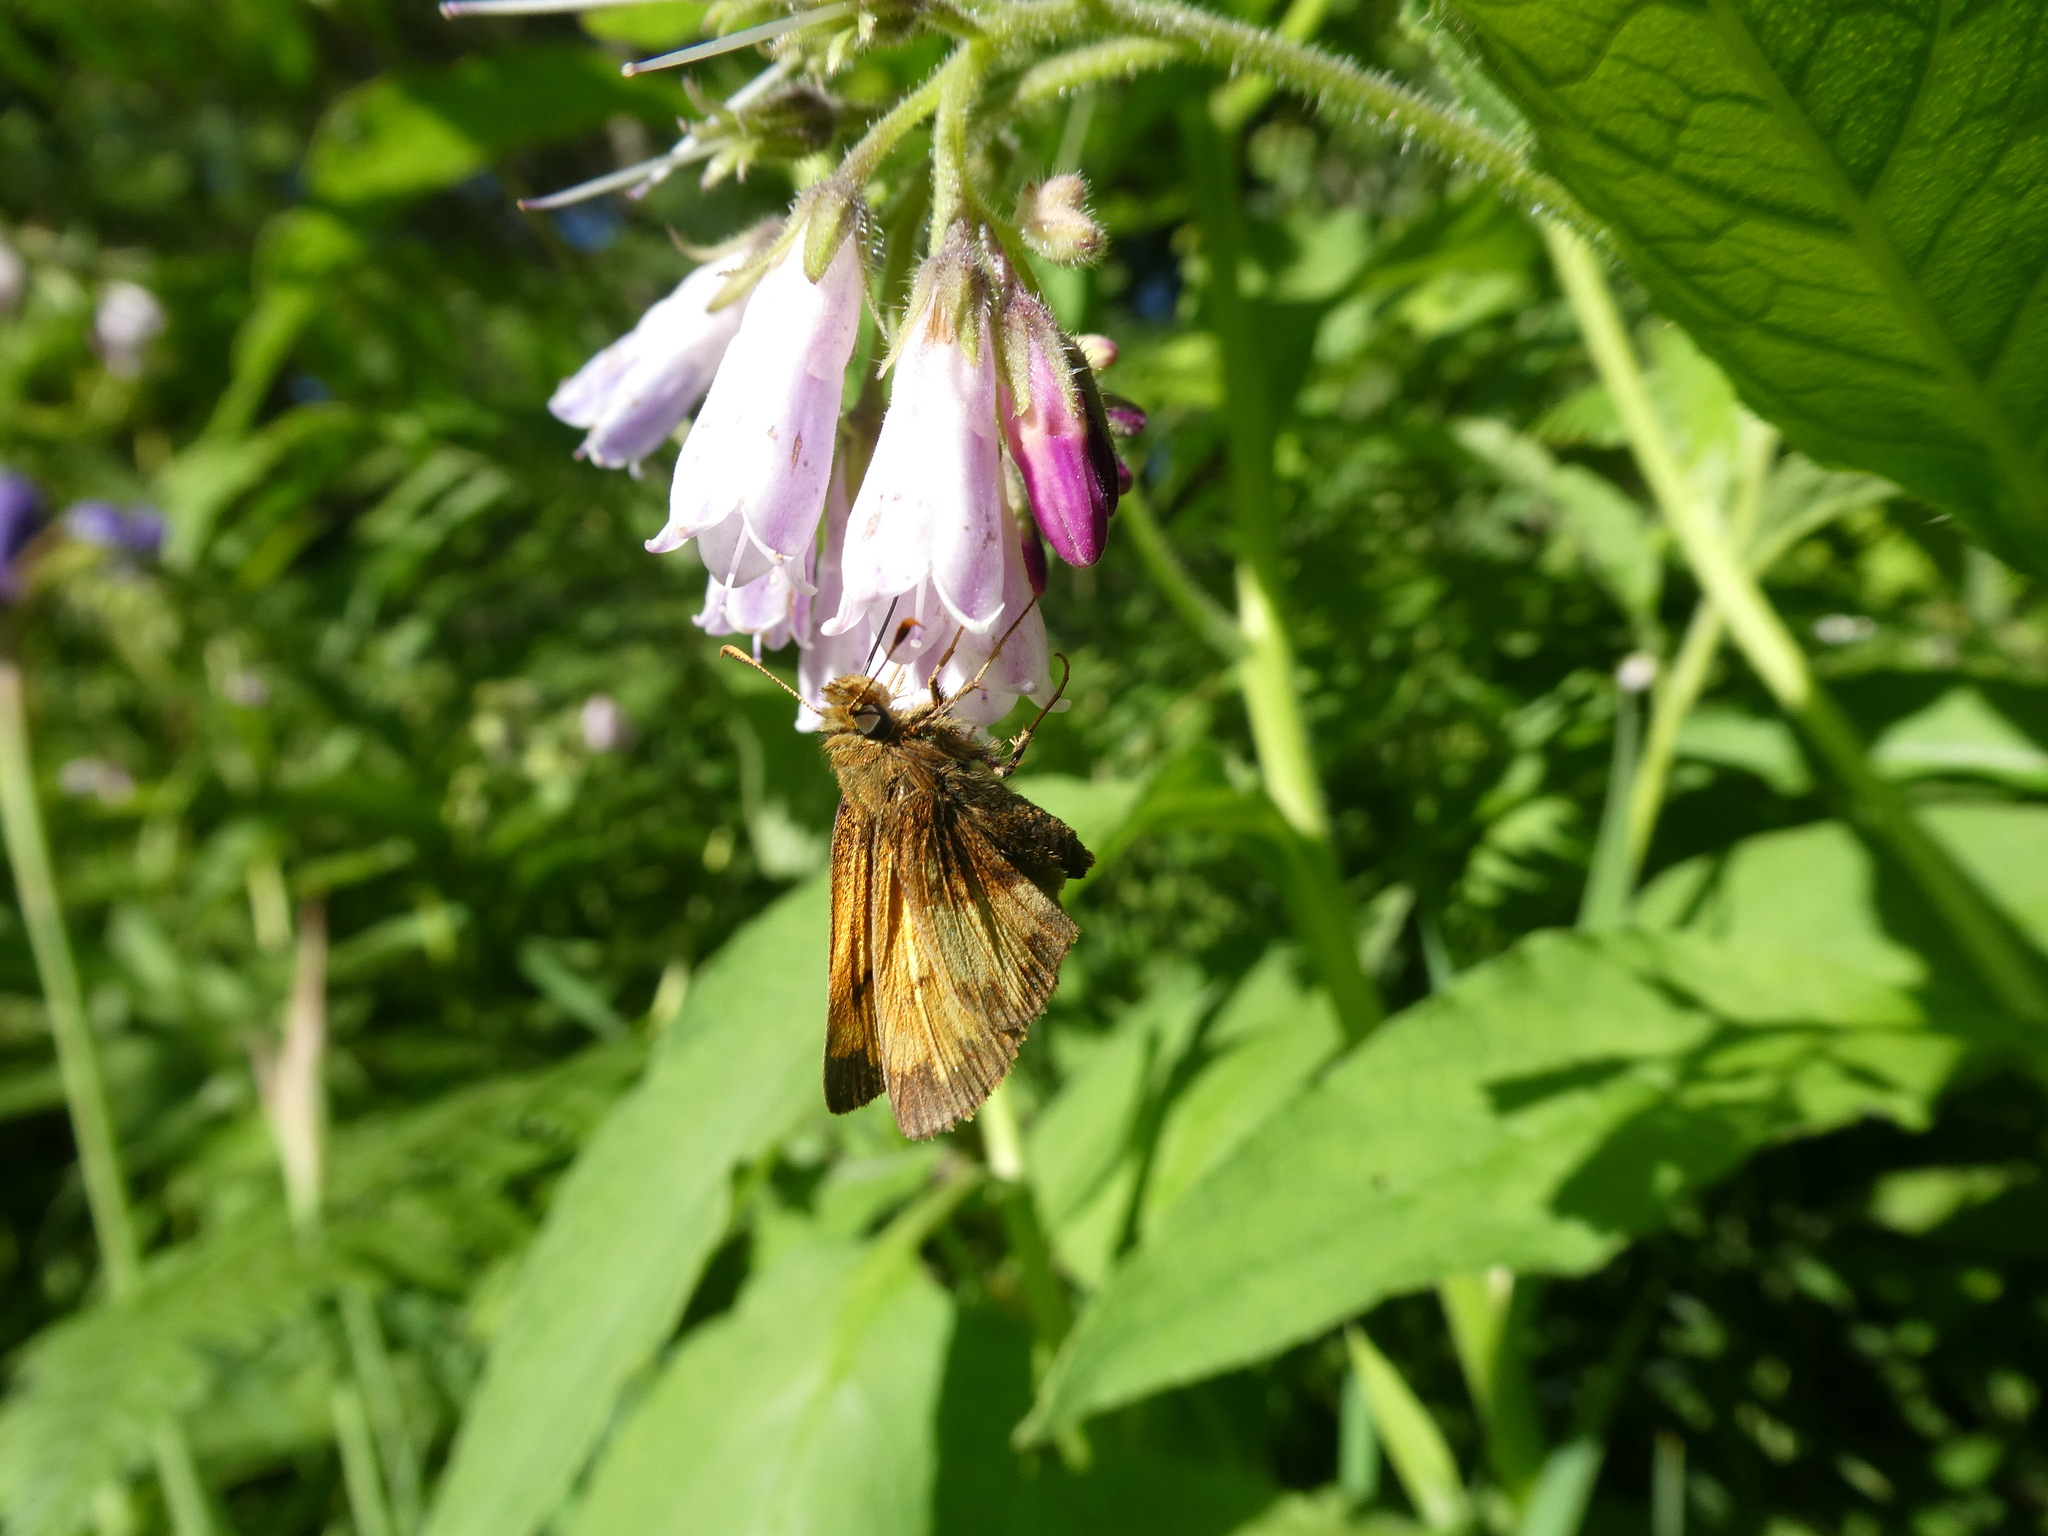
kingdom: Animalia
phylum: Arthropoda
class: Insecta
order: Lepidoptera
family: Hesperiidae
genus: Lon
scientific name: Lon hobomok
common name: Hobomok skipper
